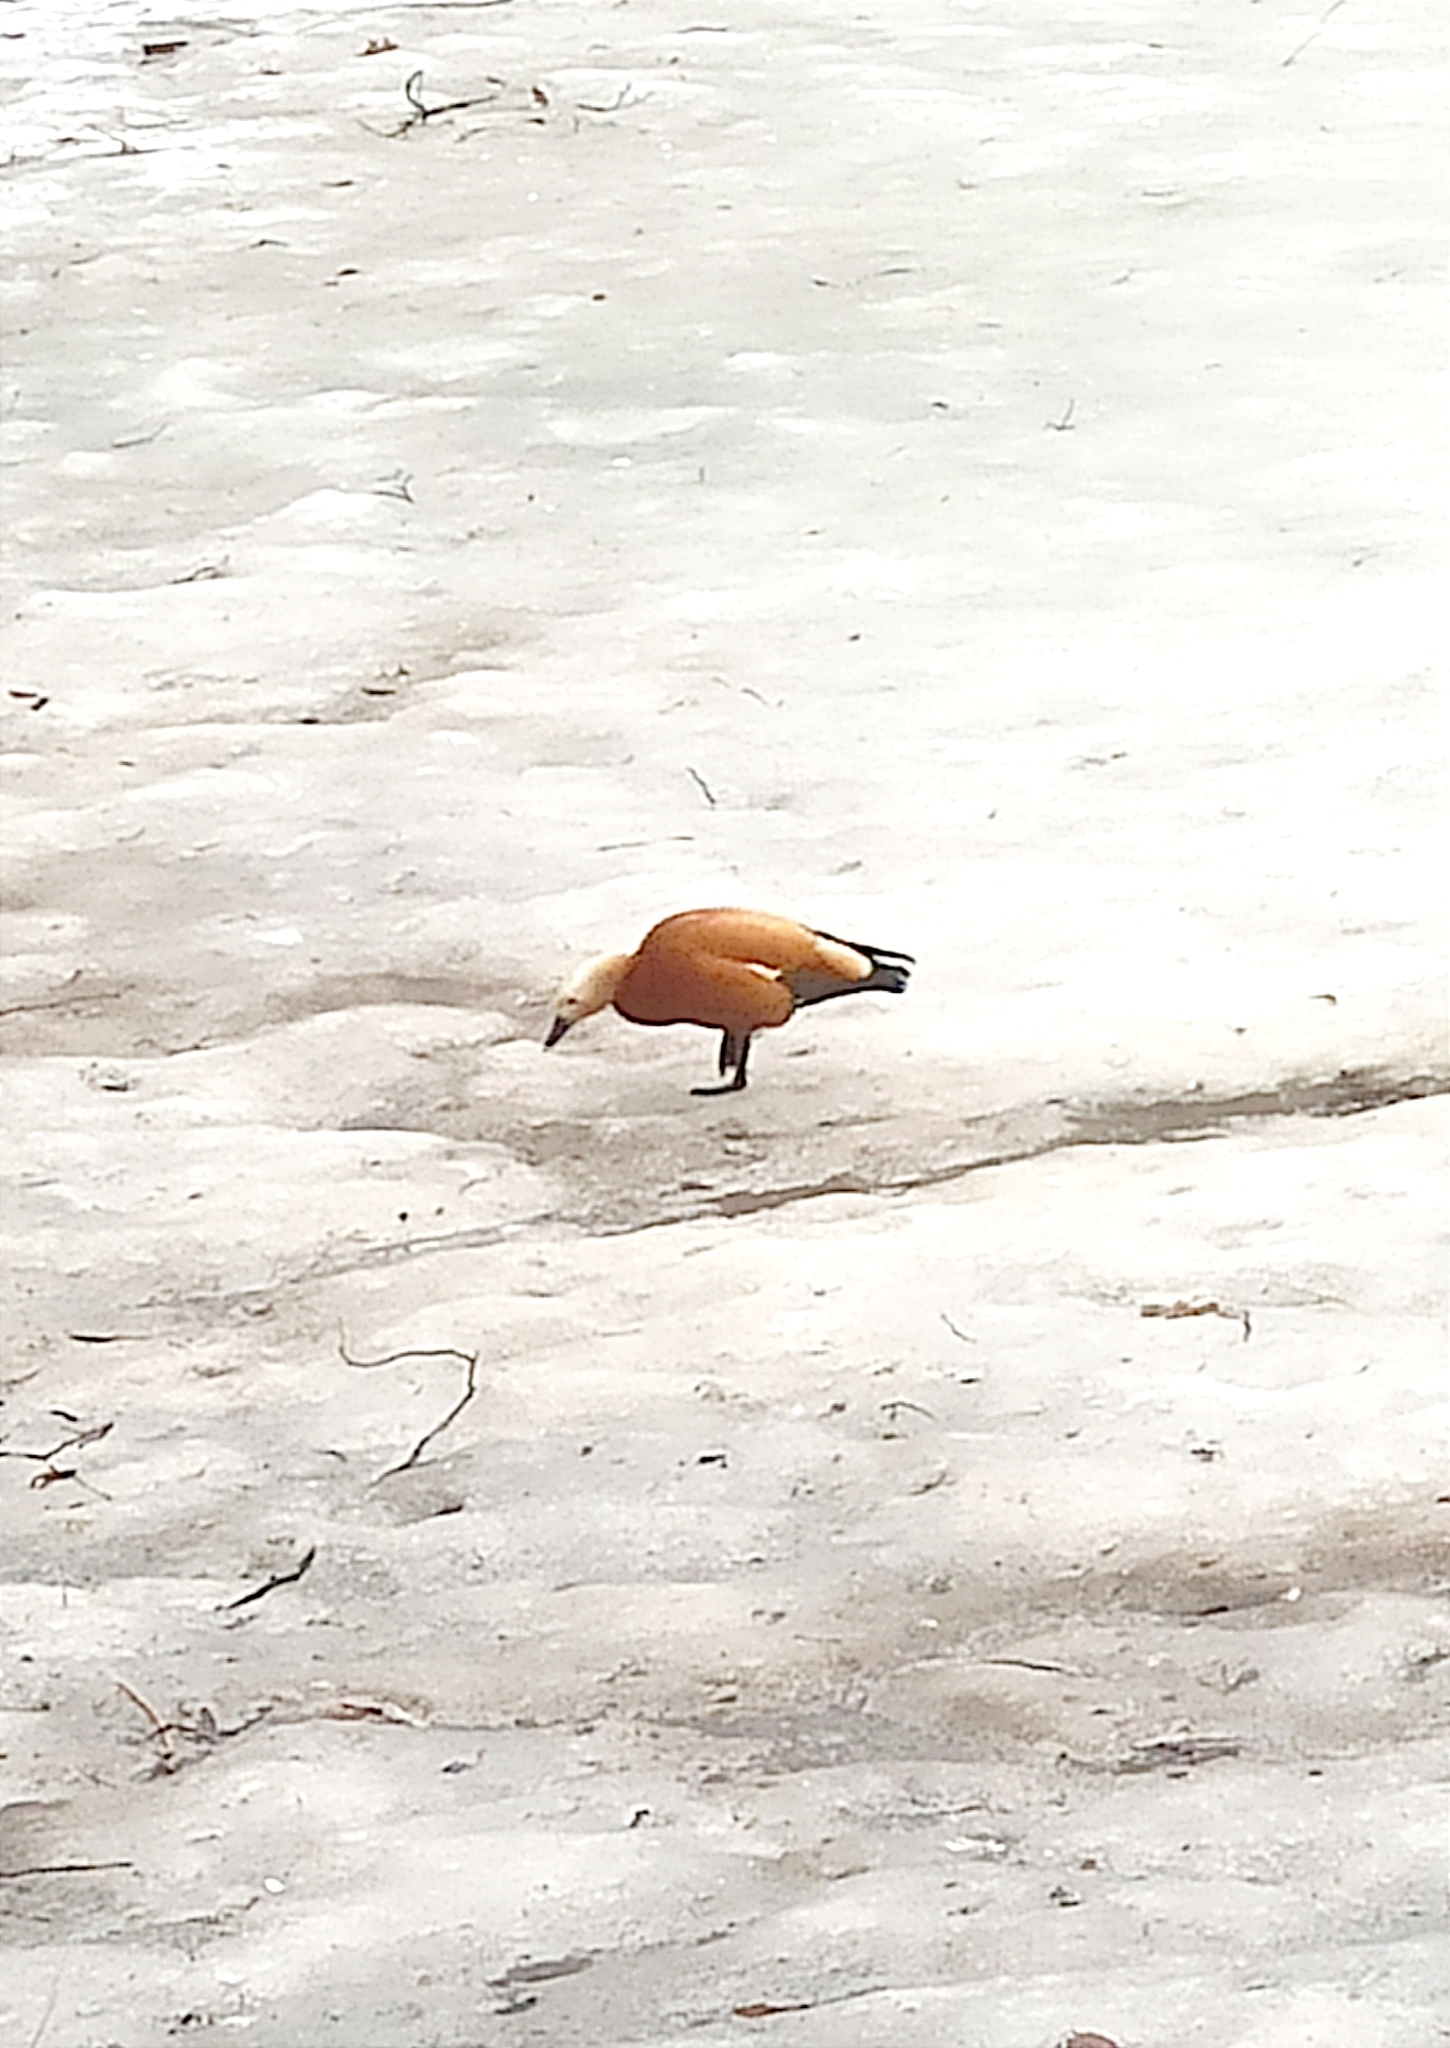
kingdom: Animalia
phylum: Chordata
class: Aves
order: Anseriformes
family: Anatidae
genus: Tadorna
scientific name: Tadorna ferruginea
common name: Ruddy shelduck
